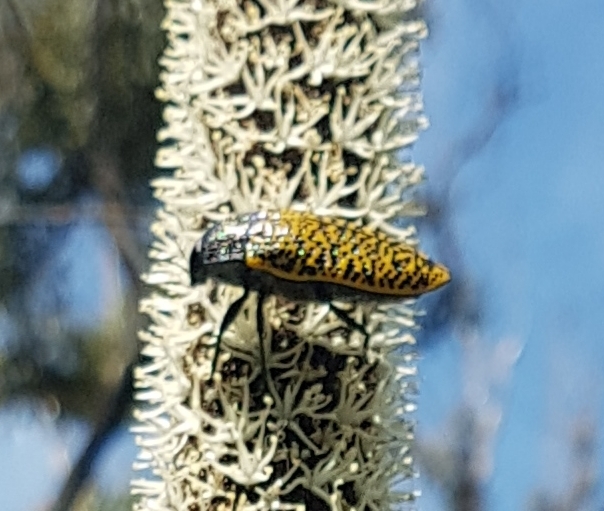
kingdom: Animalia
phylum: Arthropoda
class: Insecta
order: Coleoptera
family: Buprestidae
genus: Stigmodera
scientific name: Stigmodera macularia
